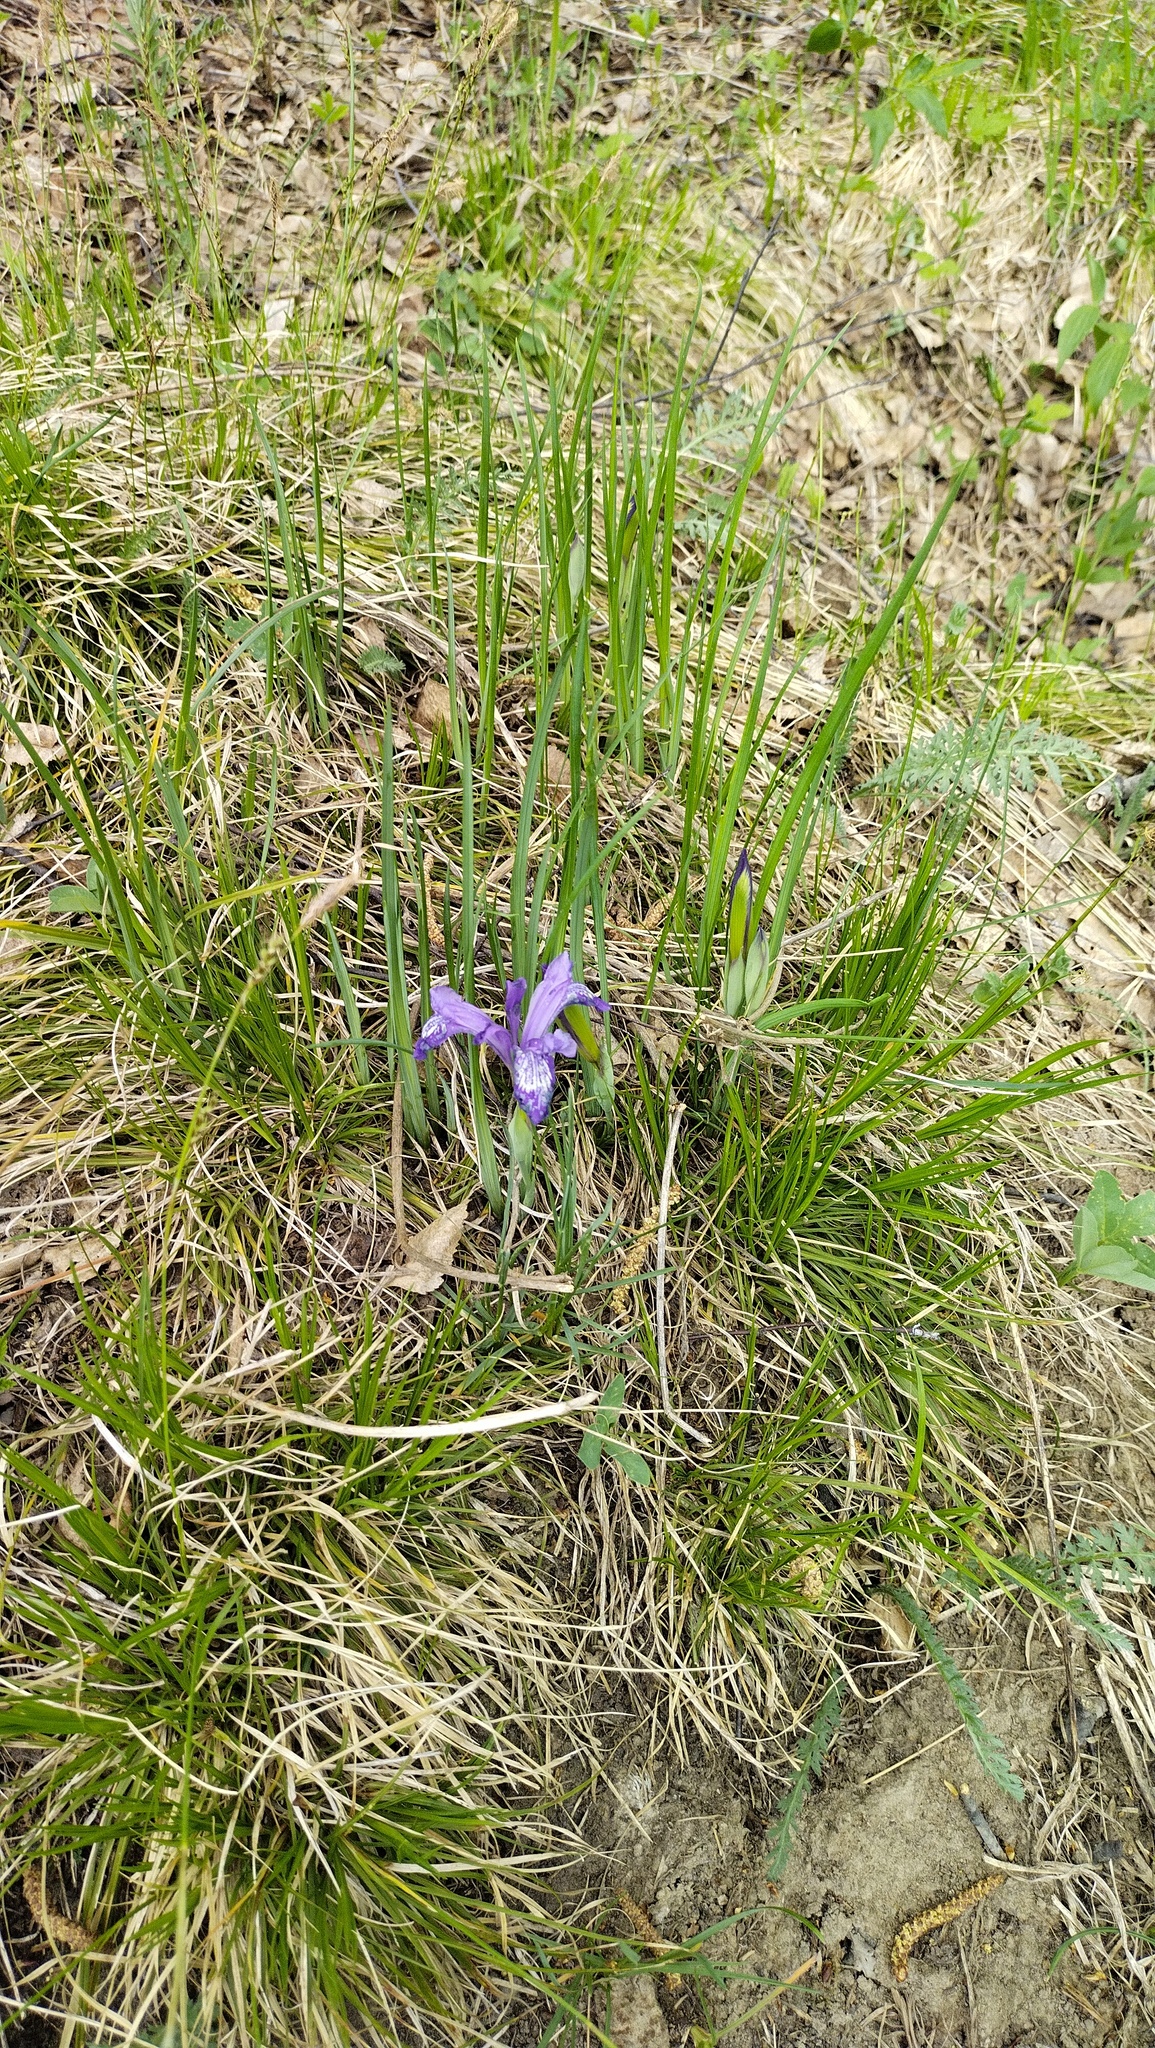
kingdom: Plantae
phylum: Tracheophyta
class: Liliopsida
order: Asparagales
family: Iridaceae
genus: Iris
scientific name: Iris ruthenica
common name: Purple-bract iris
